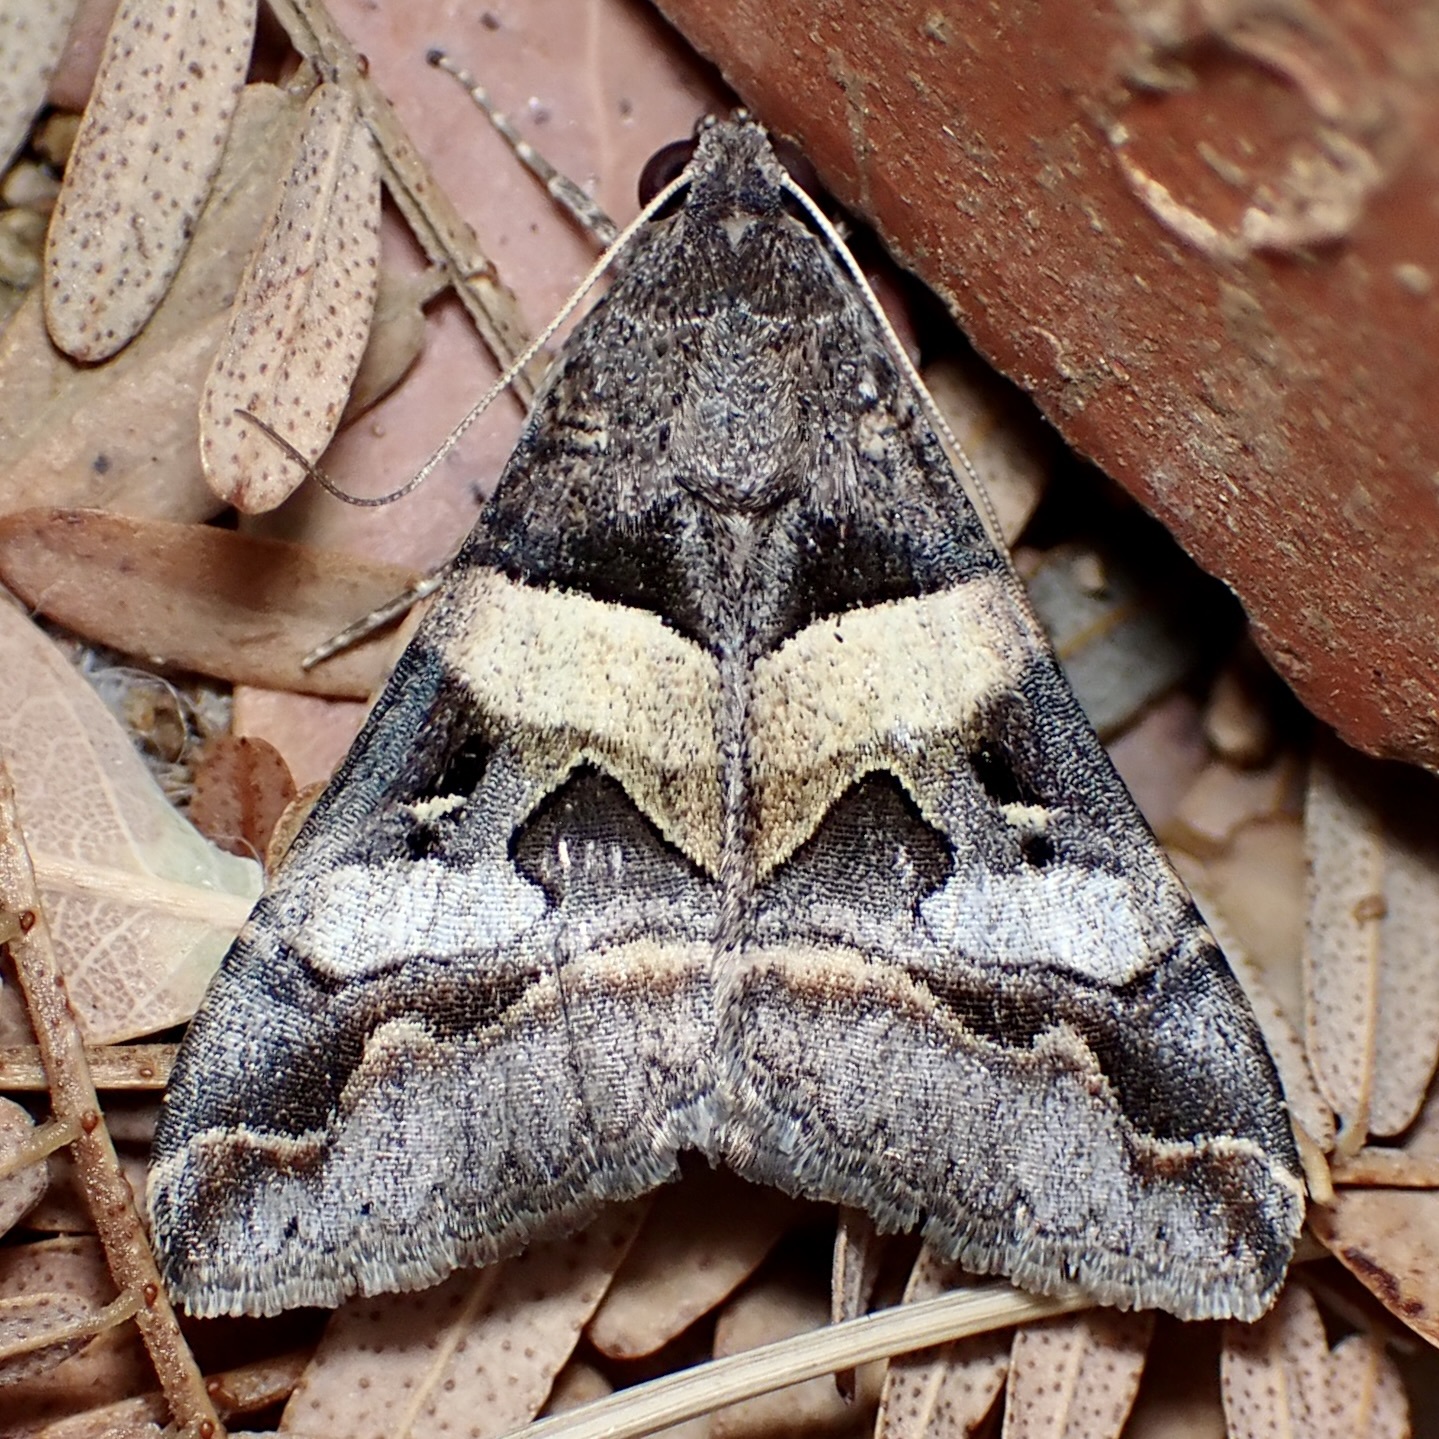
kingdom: Animalia
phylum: Arthropoda
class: Insecta
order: Lepidoptera
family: Erebidae
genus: Melipotis
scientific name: Melipotis perpendicularis
